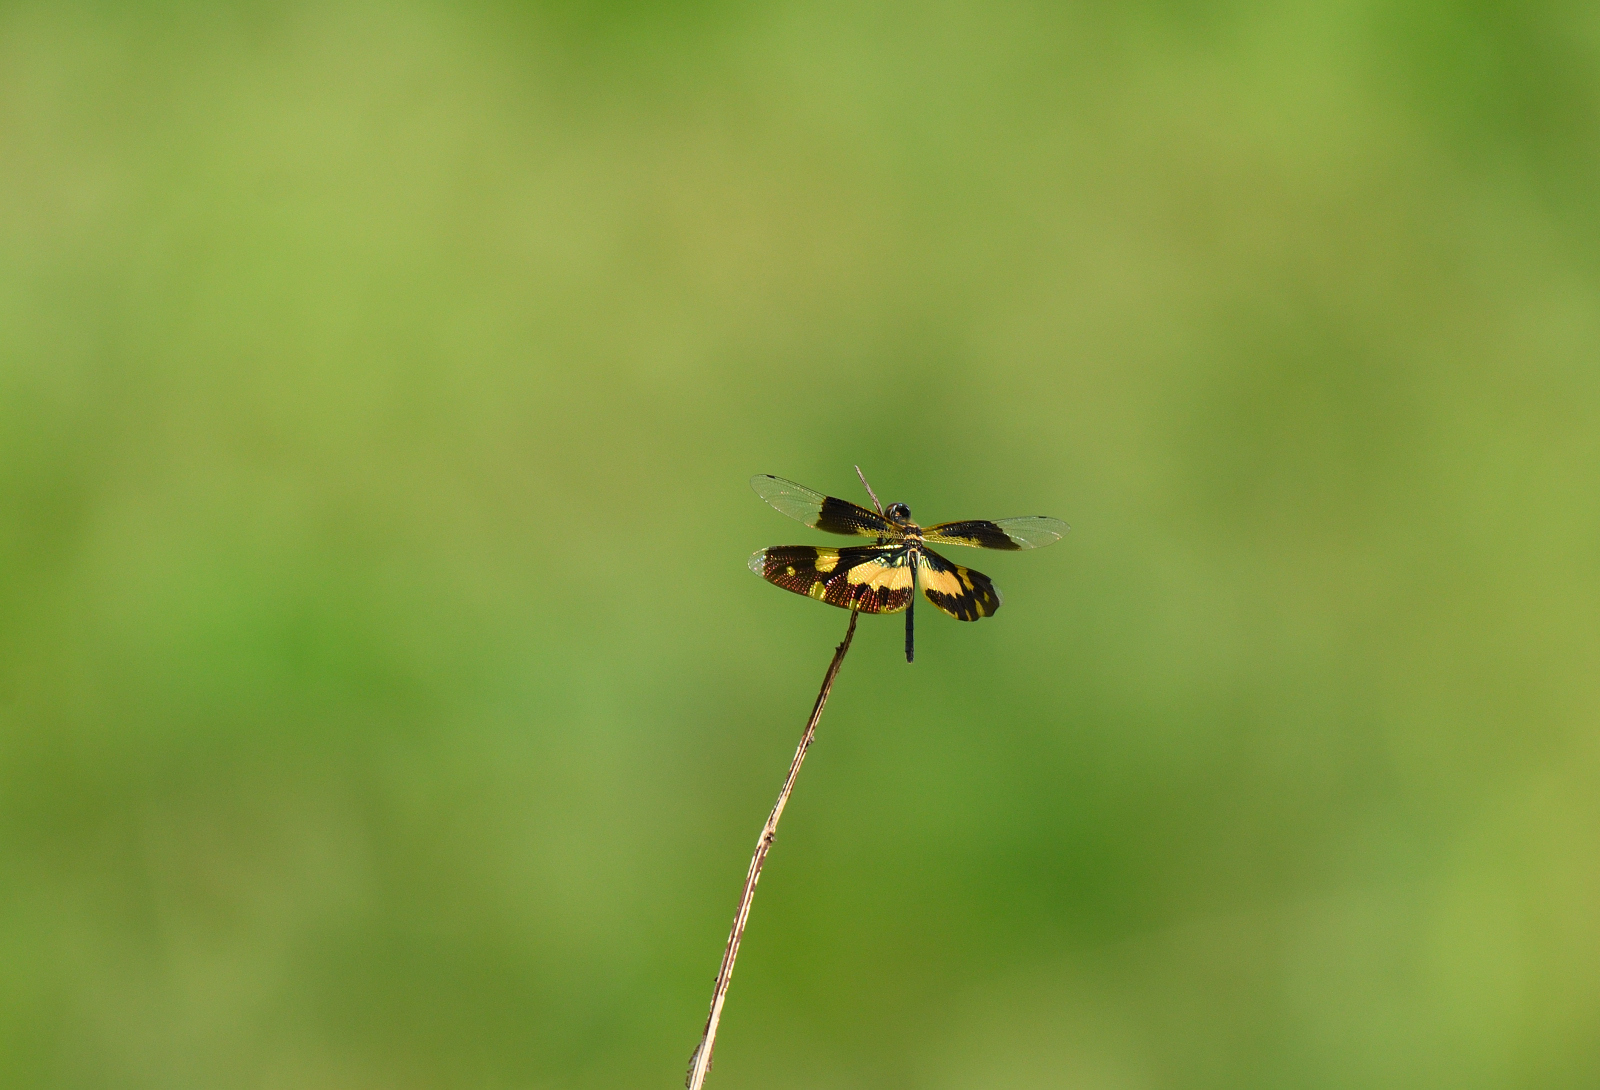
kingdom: Animalia
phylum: Arthropoda
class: Insecta
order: Odonata
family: Libellulidae
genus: Rhyothemis
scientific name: Rhyothemis variegata
